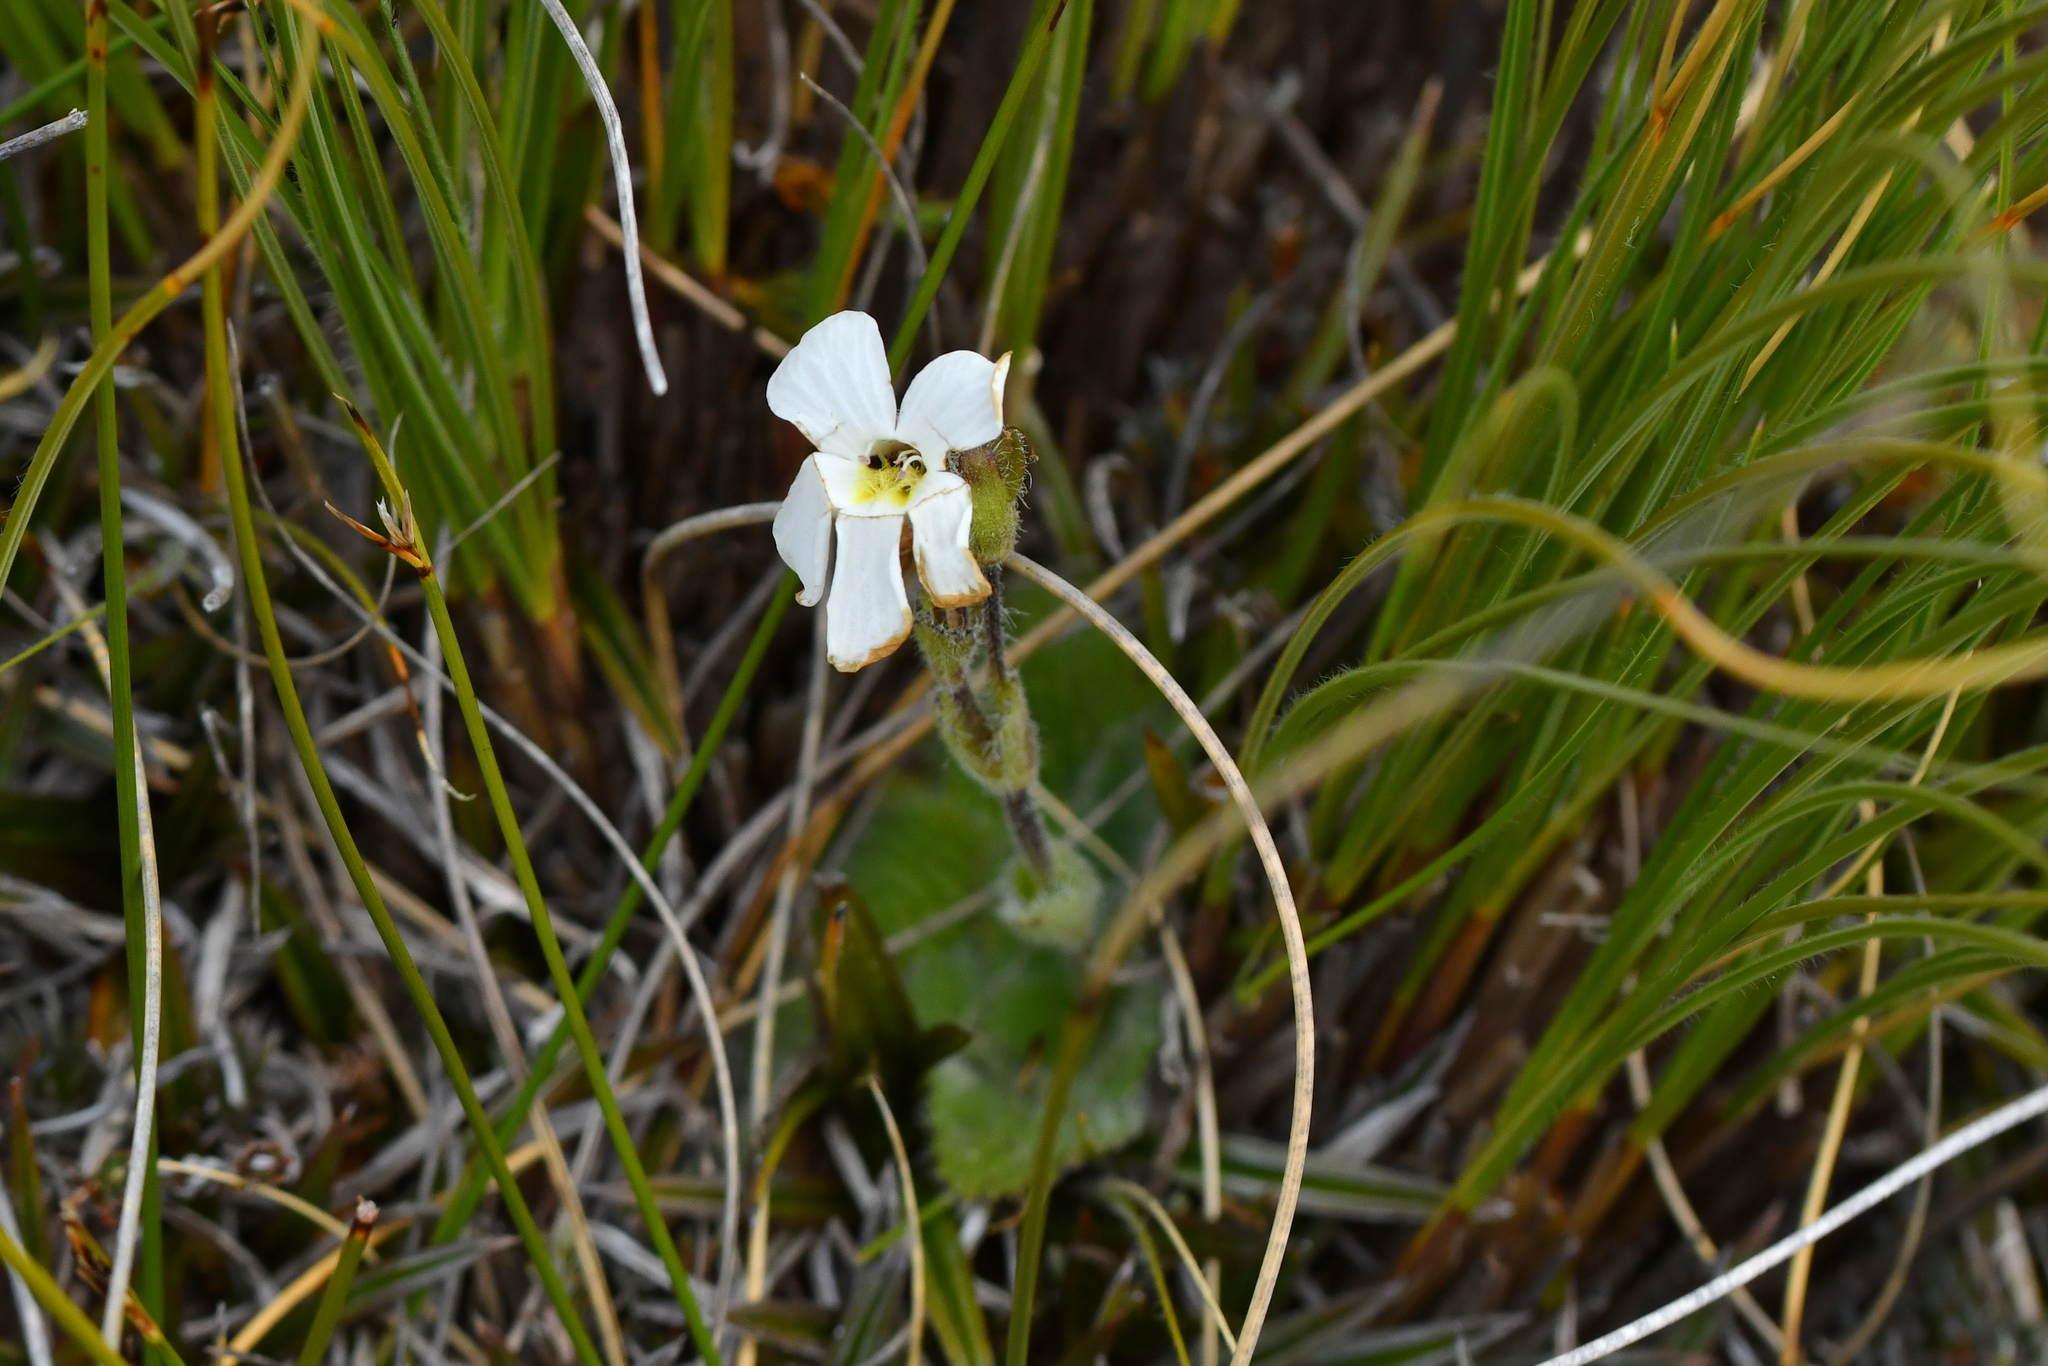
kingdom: Plantae
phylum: Tracheophyta
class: Magnoliopsida
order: Lamiales
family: Plantaginaceae
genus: Ourisia
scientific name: Ourisia sessilifolia
